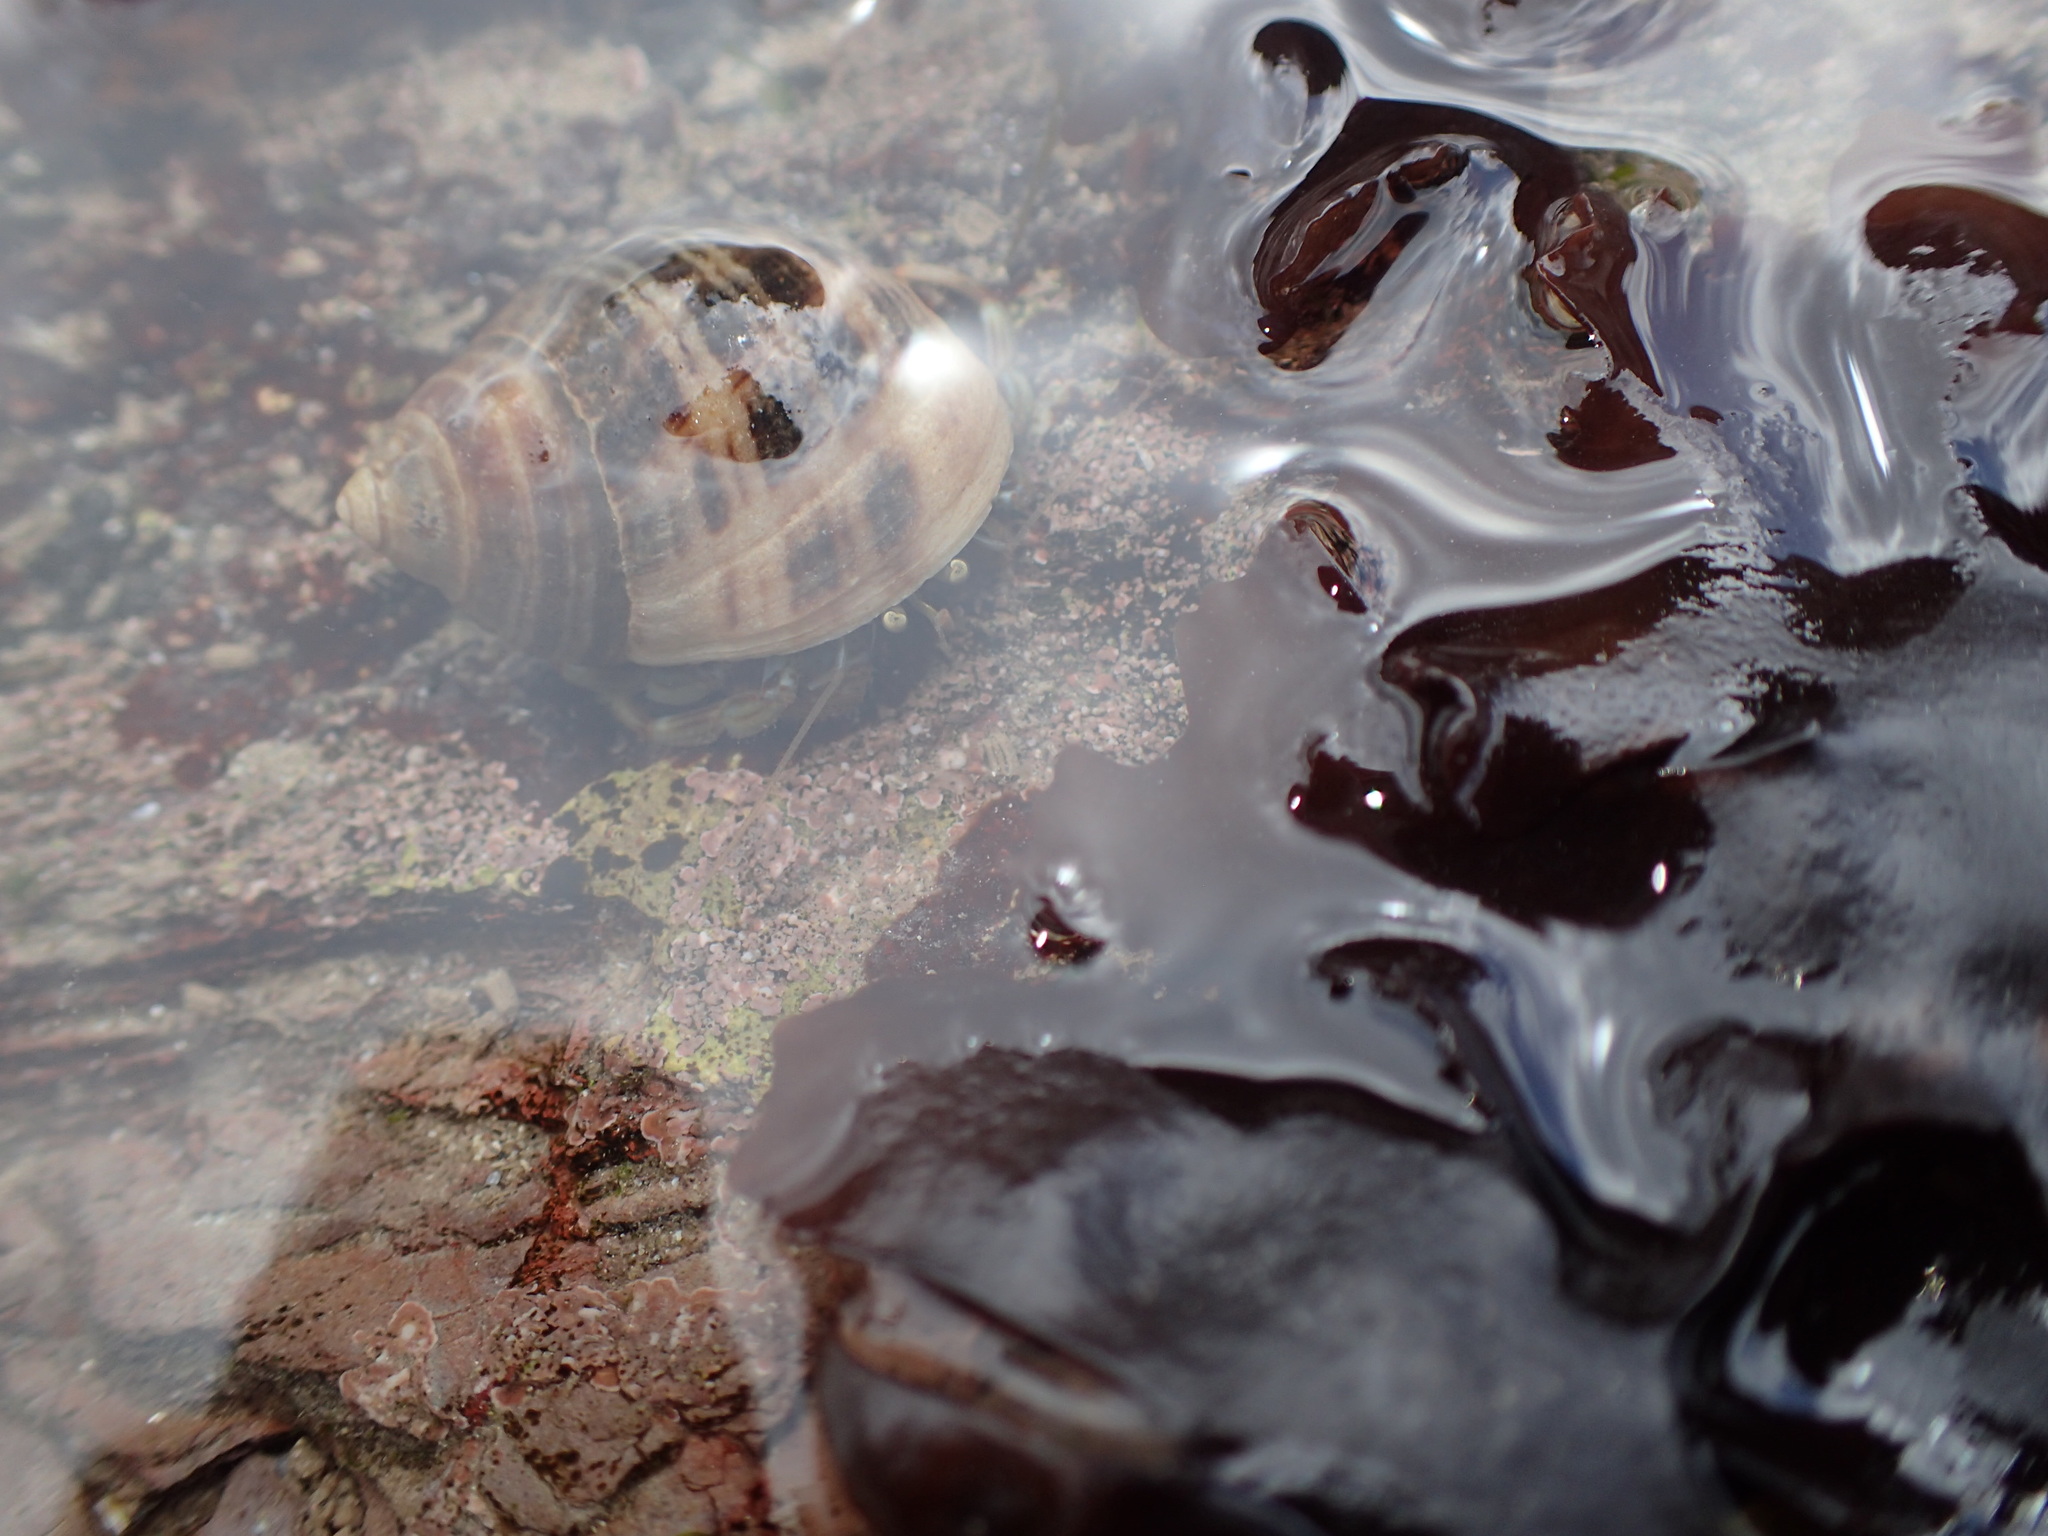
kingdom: Animalia
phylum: Arthropoda
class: Malacostraca
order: Decapoda
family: Paguridae
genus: Pagurus
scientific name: Pagurus bernhardus
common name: Hermit crab
